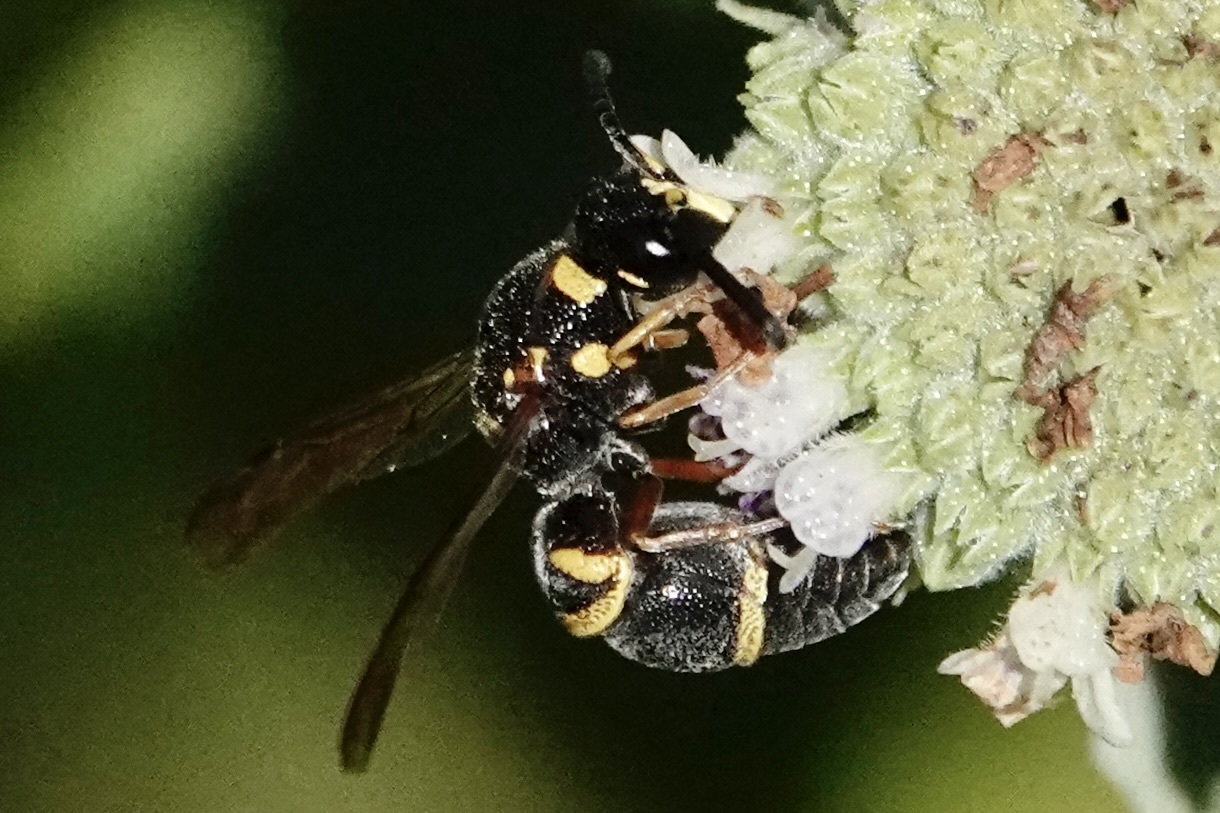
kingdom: Animalia
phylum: Arthropoda
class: Insecta
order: Hymenoptera
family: Eumenidae
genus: Parancistrocerus
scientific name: Parancistrocerus fulvipes
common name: Potter wasp
